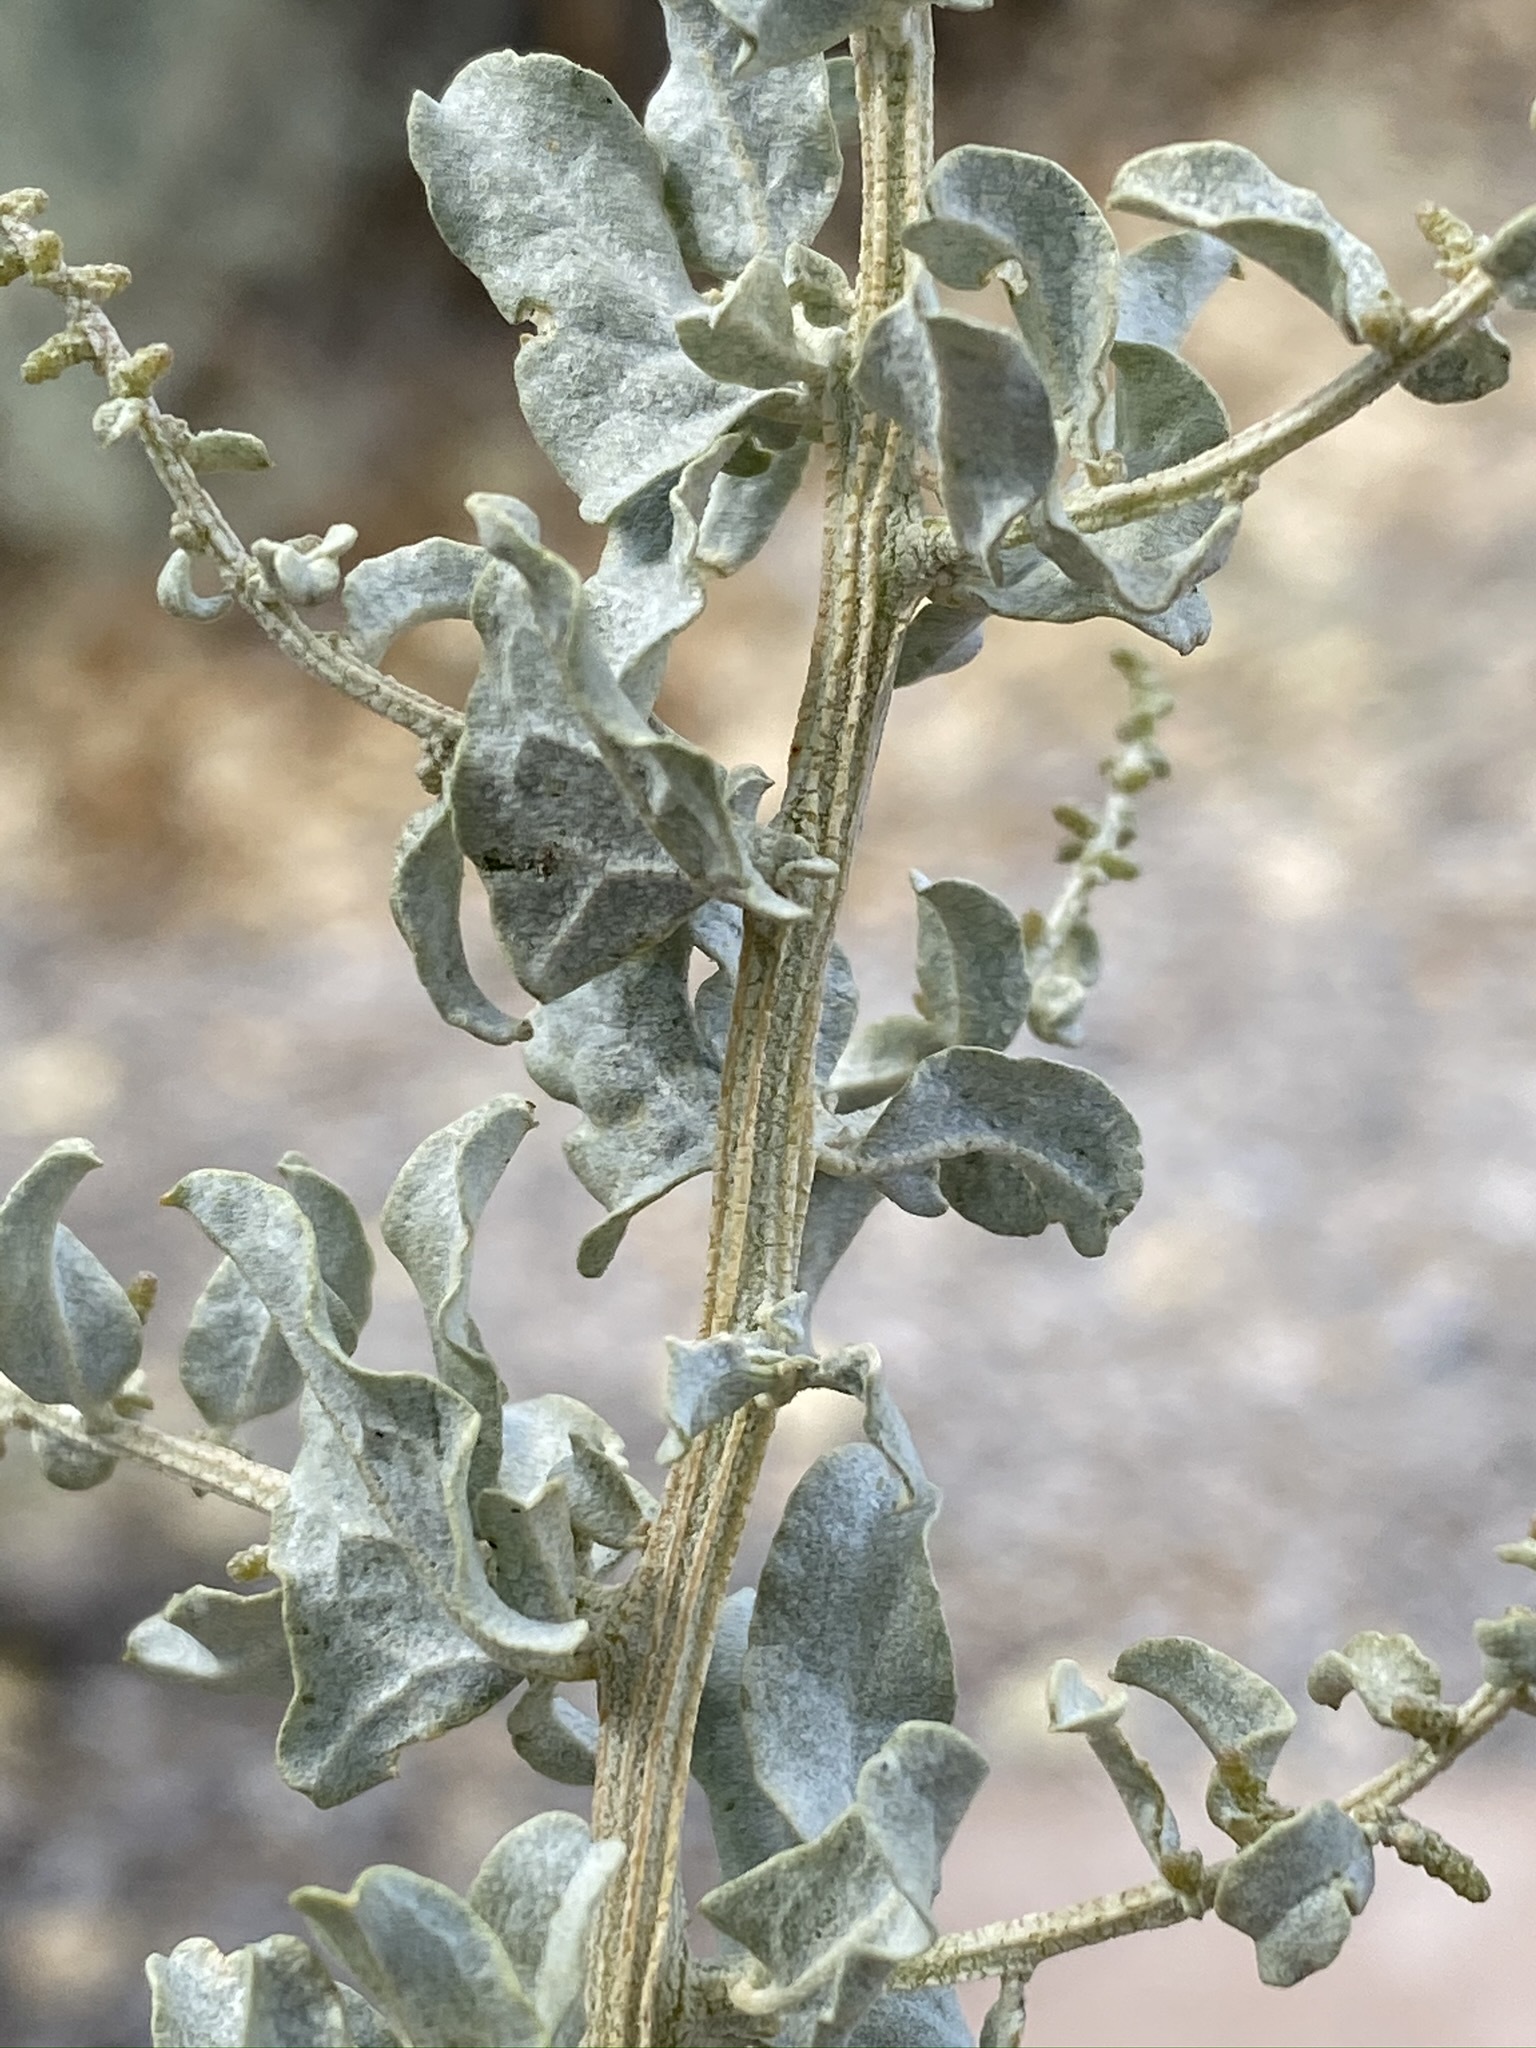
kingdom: Plantae
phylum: Tracheophyta
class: Magnoliopsida
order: Caryophyllales
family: Amaranthaceae
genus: Atriplex
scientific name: Atriplex torreyi
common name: Torrey's saltbush
